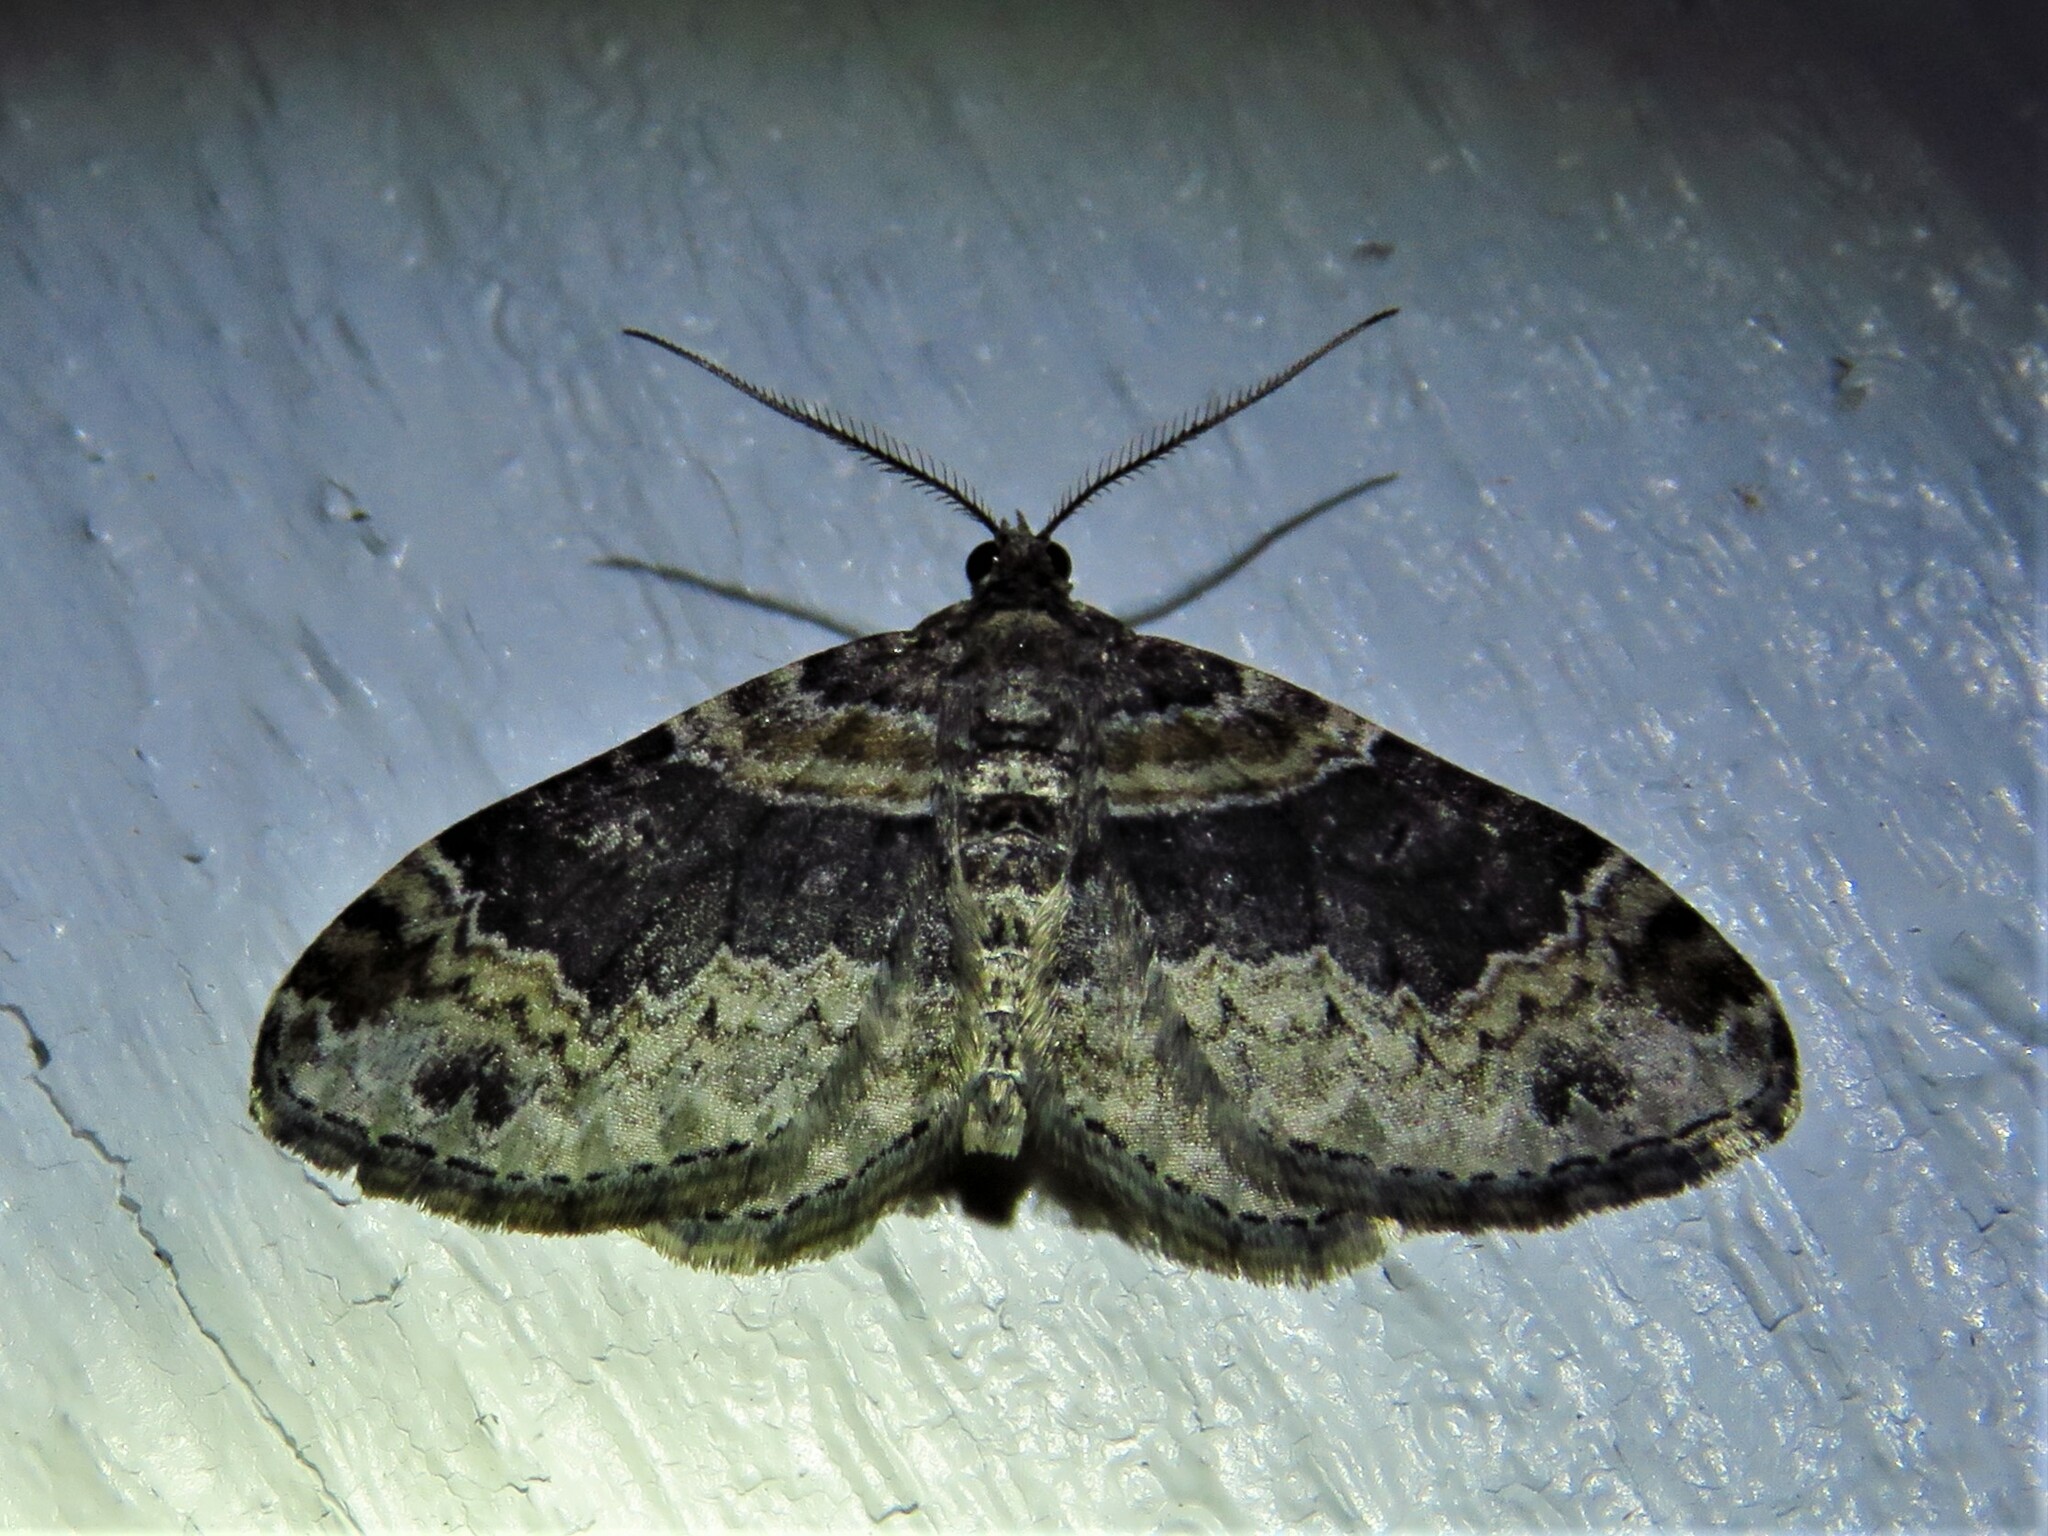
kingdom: Animalia
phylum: Arthropoda
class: Insecta
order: Lepidoptera
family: Geometridae
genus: Xanthorhoe
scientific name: Xanthorhoe ferrugata
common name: Dark-barred twin-spot carpet
